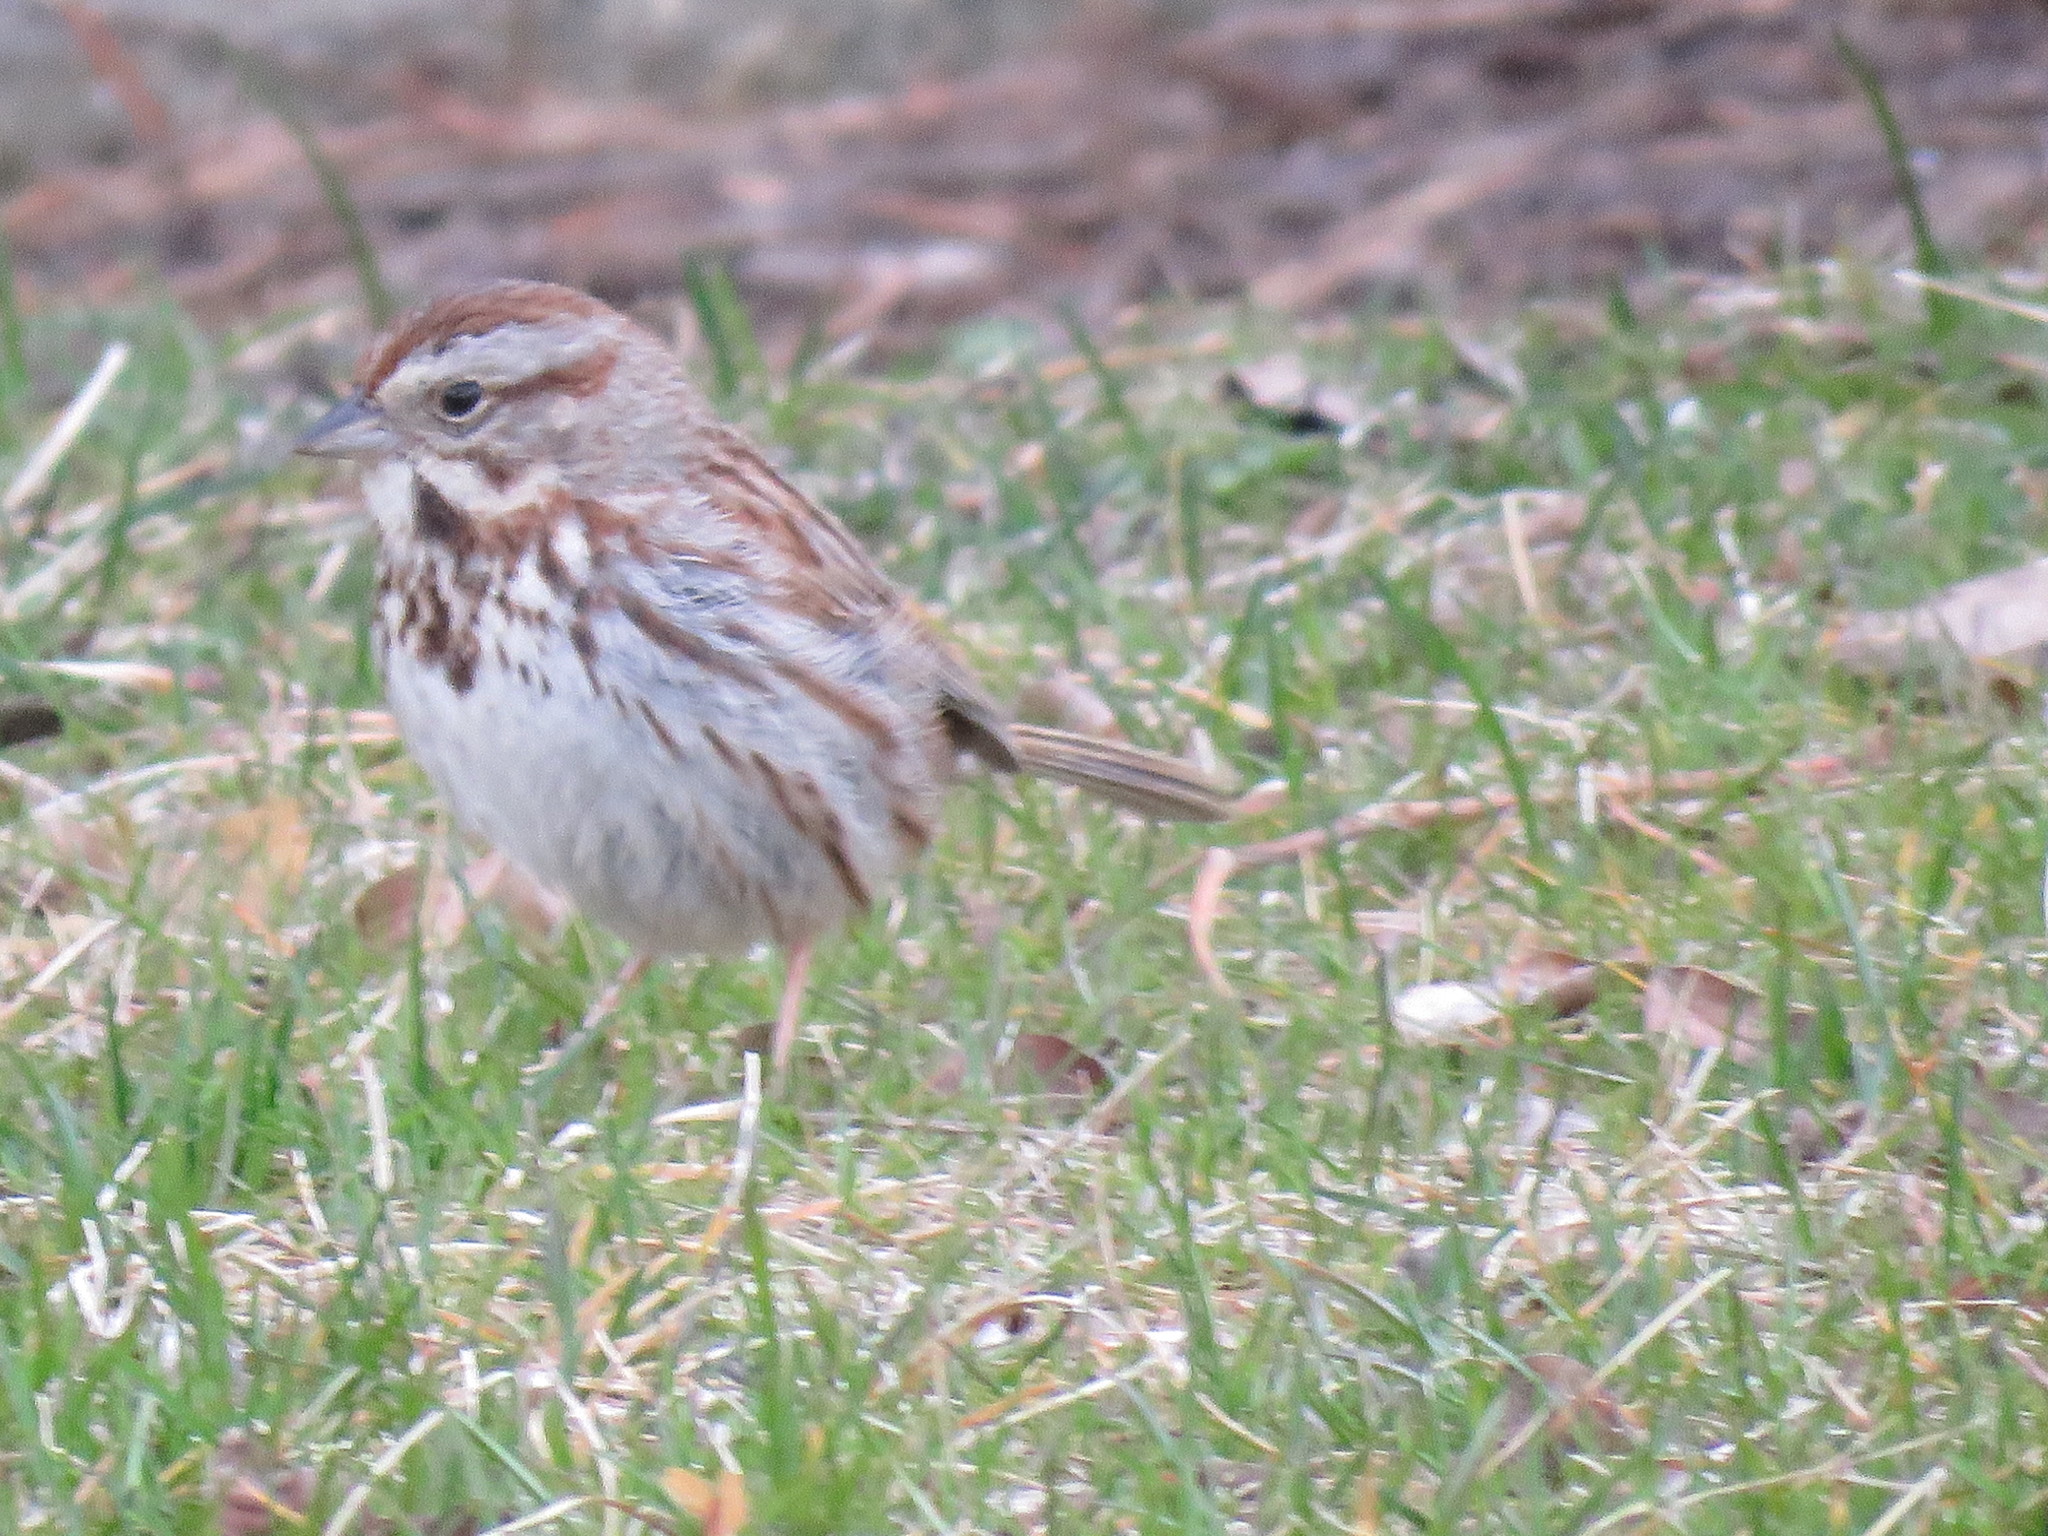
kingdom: Animalia
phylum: Chordata
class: Aves
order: Passeriformes
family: Passerellidae
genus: Melospiza
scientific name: Melospiza melodia
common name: Song sparrow
